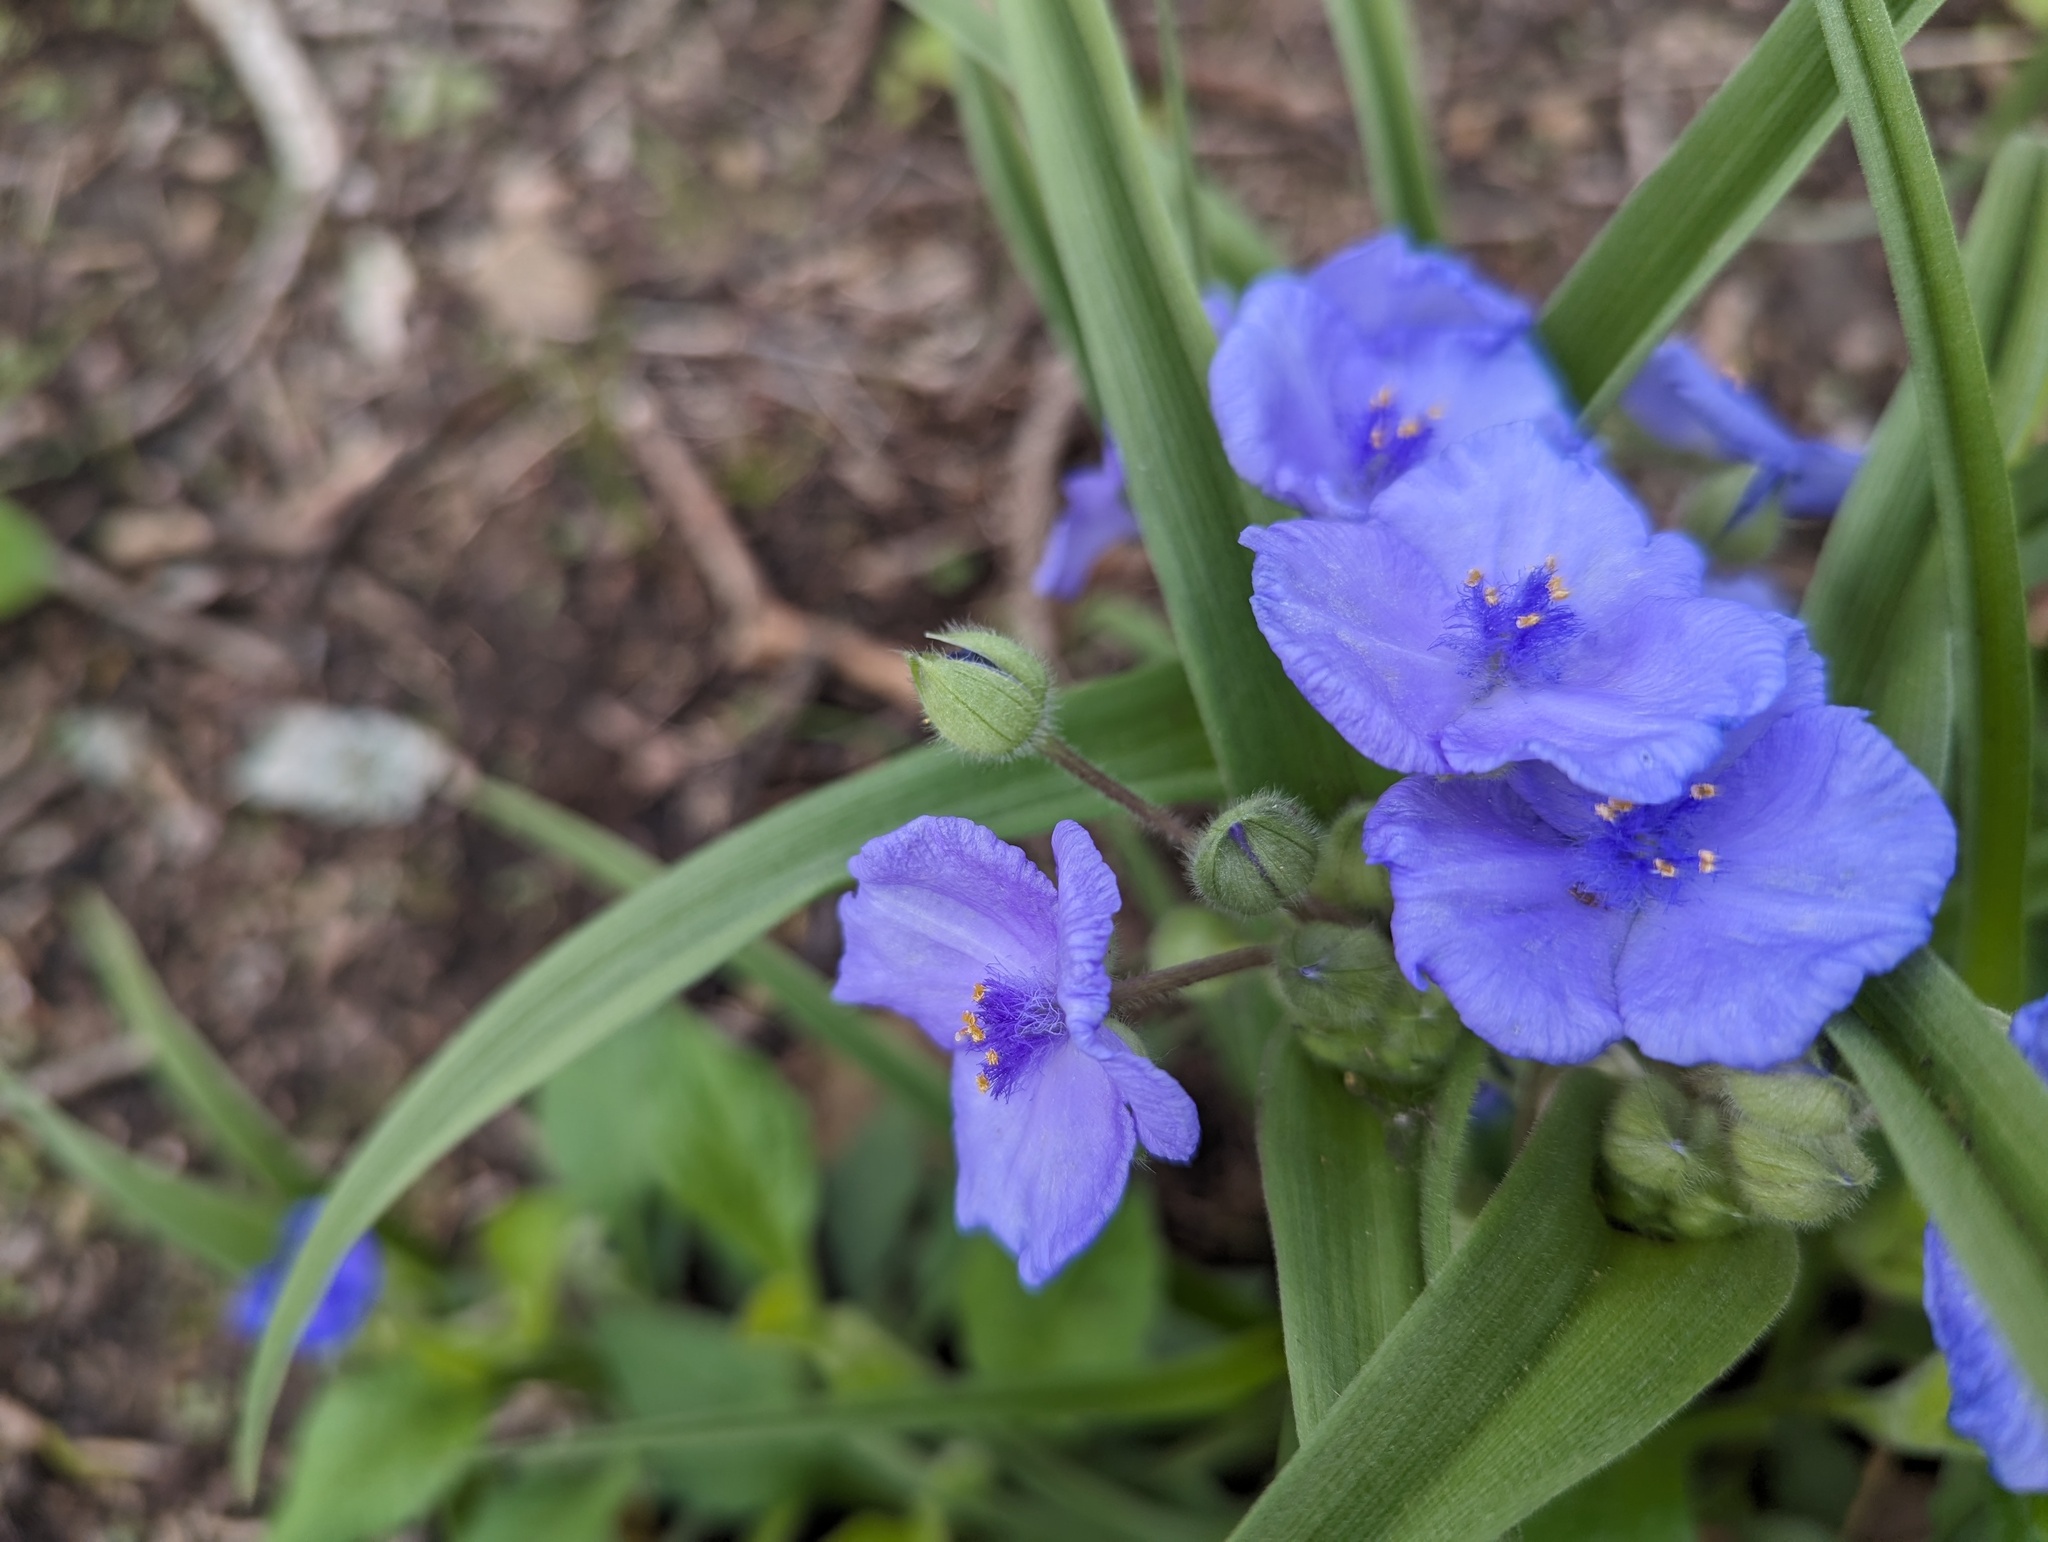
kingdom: Plantae
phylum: Tracheophyta
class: Liliopsida
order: Commelinales
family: Commelinaceae
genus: Tradescantia
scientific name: Tradescantia virginiana
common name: Spiderwort
